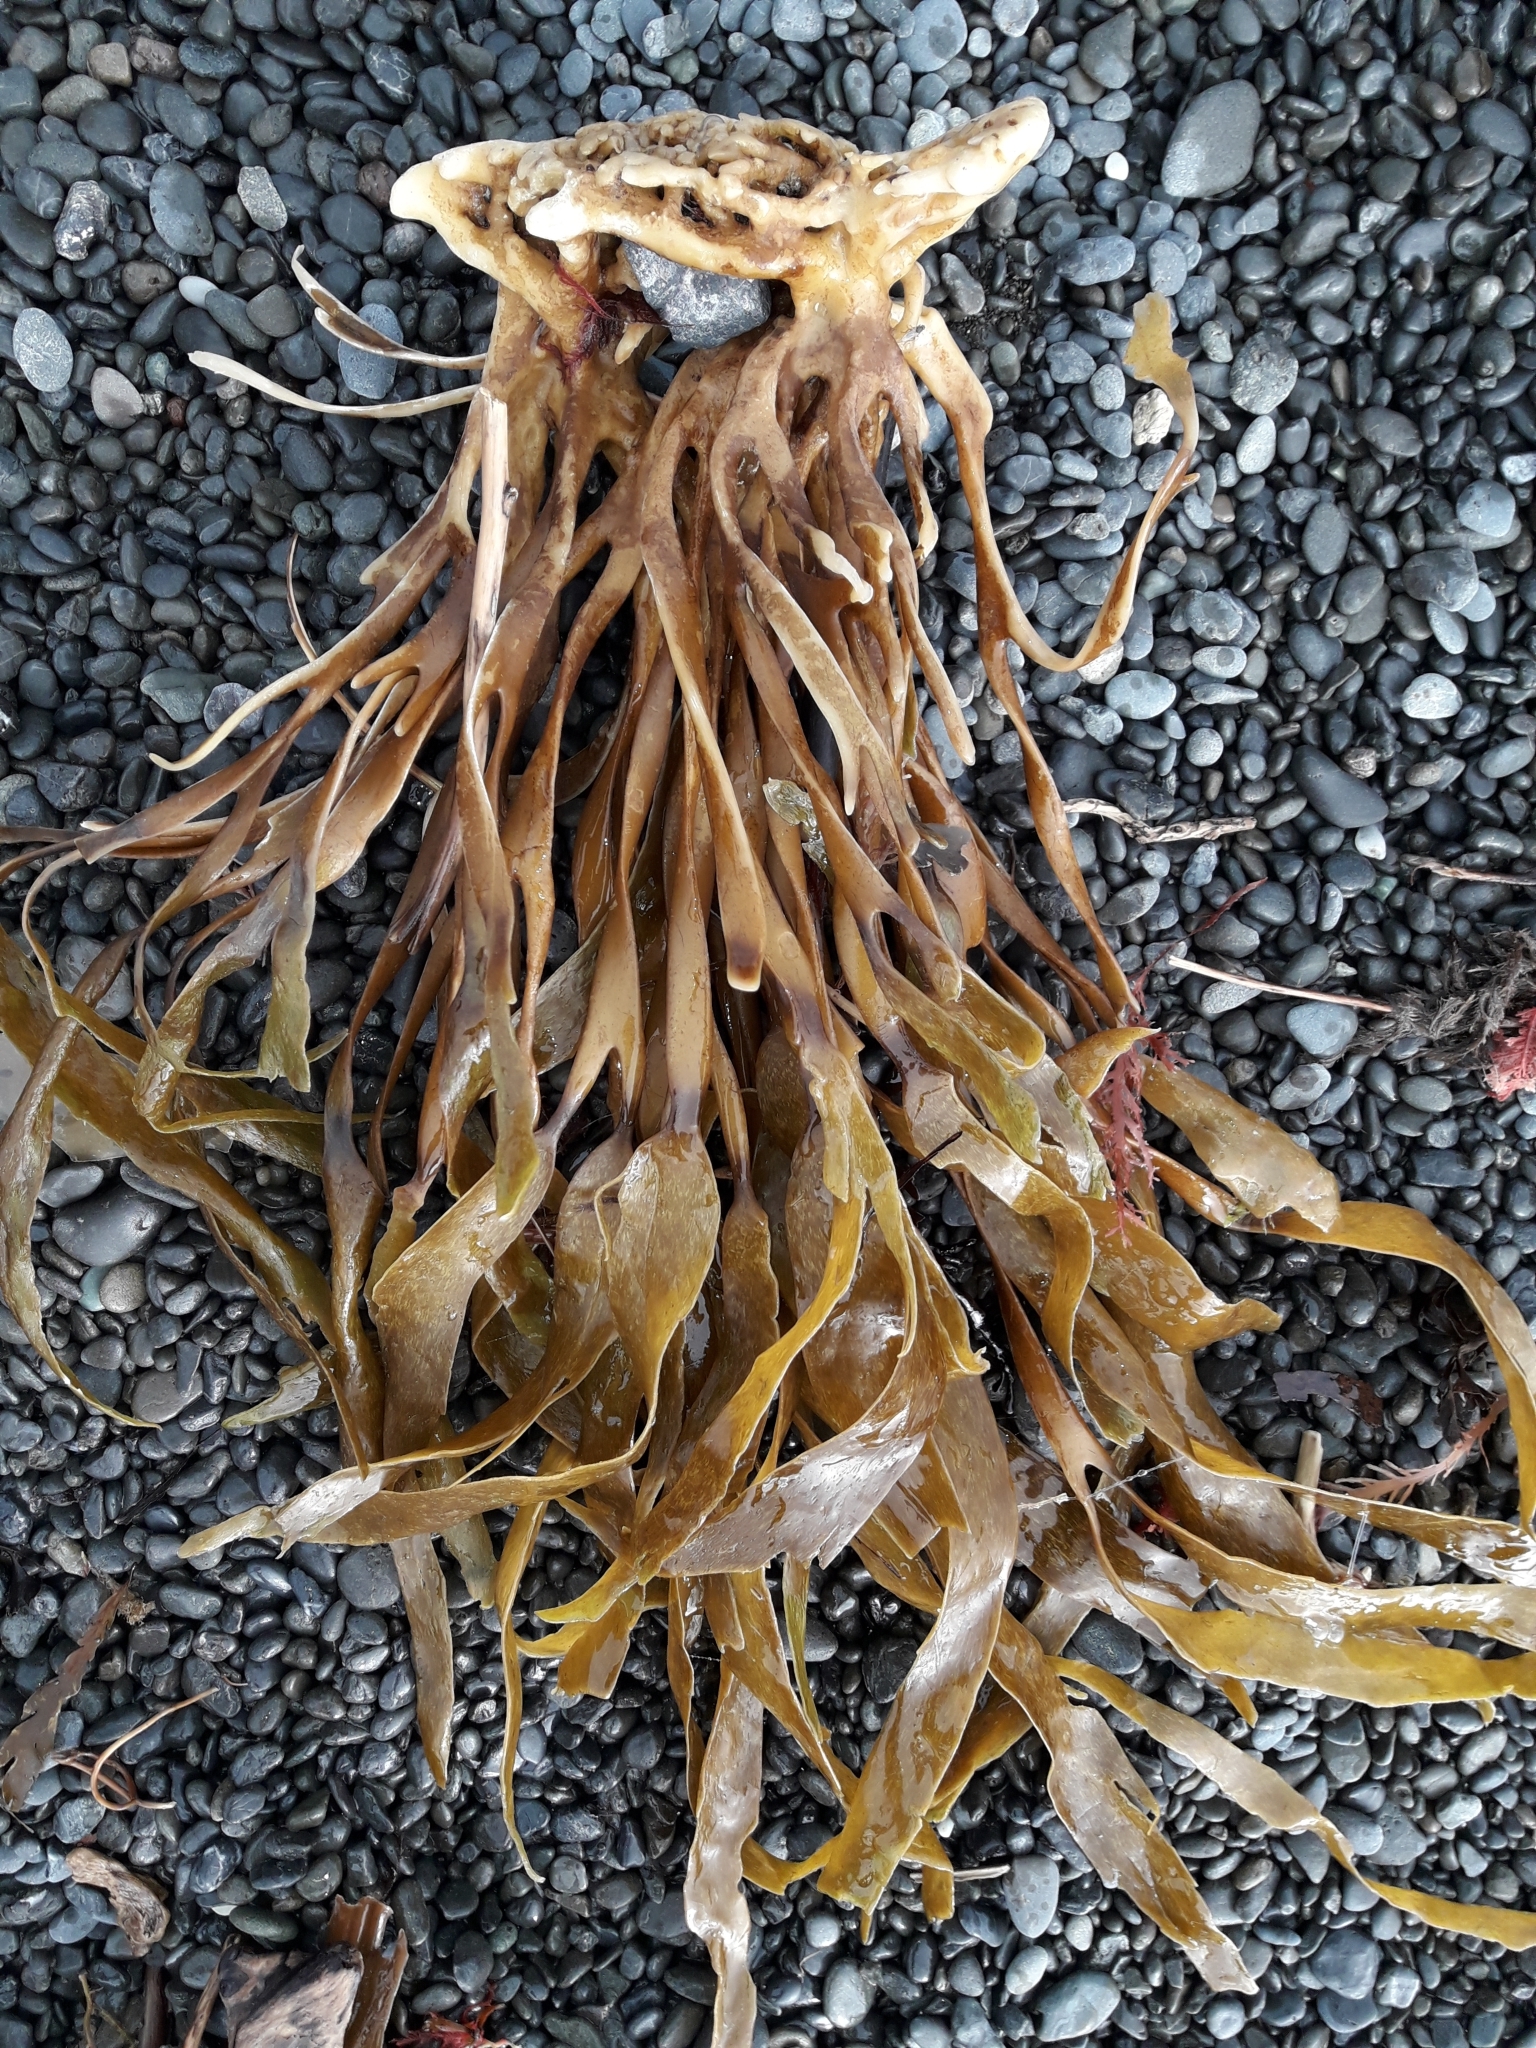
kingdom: Chromista
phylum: Ochrophyta
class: Phaeophyceae
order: Laminariales
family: Lessoniaceae
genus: Lessonia
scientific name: Lessonia variegata
